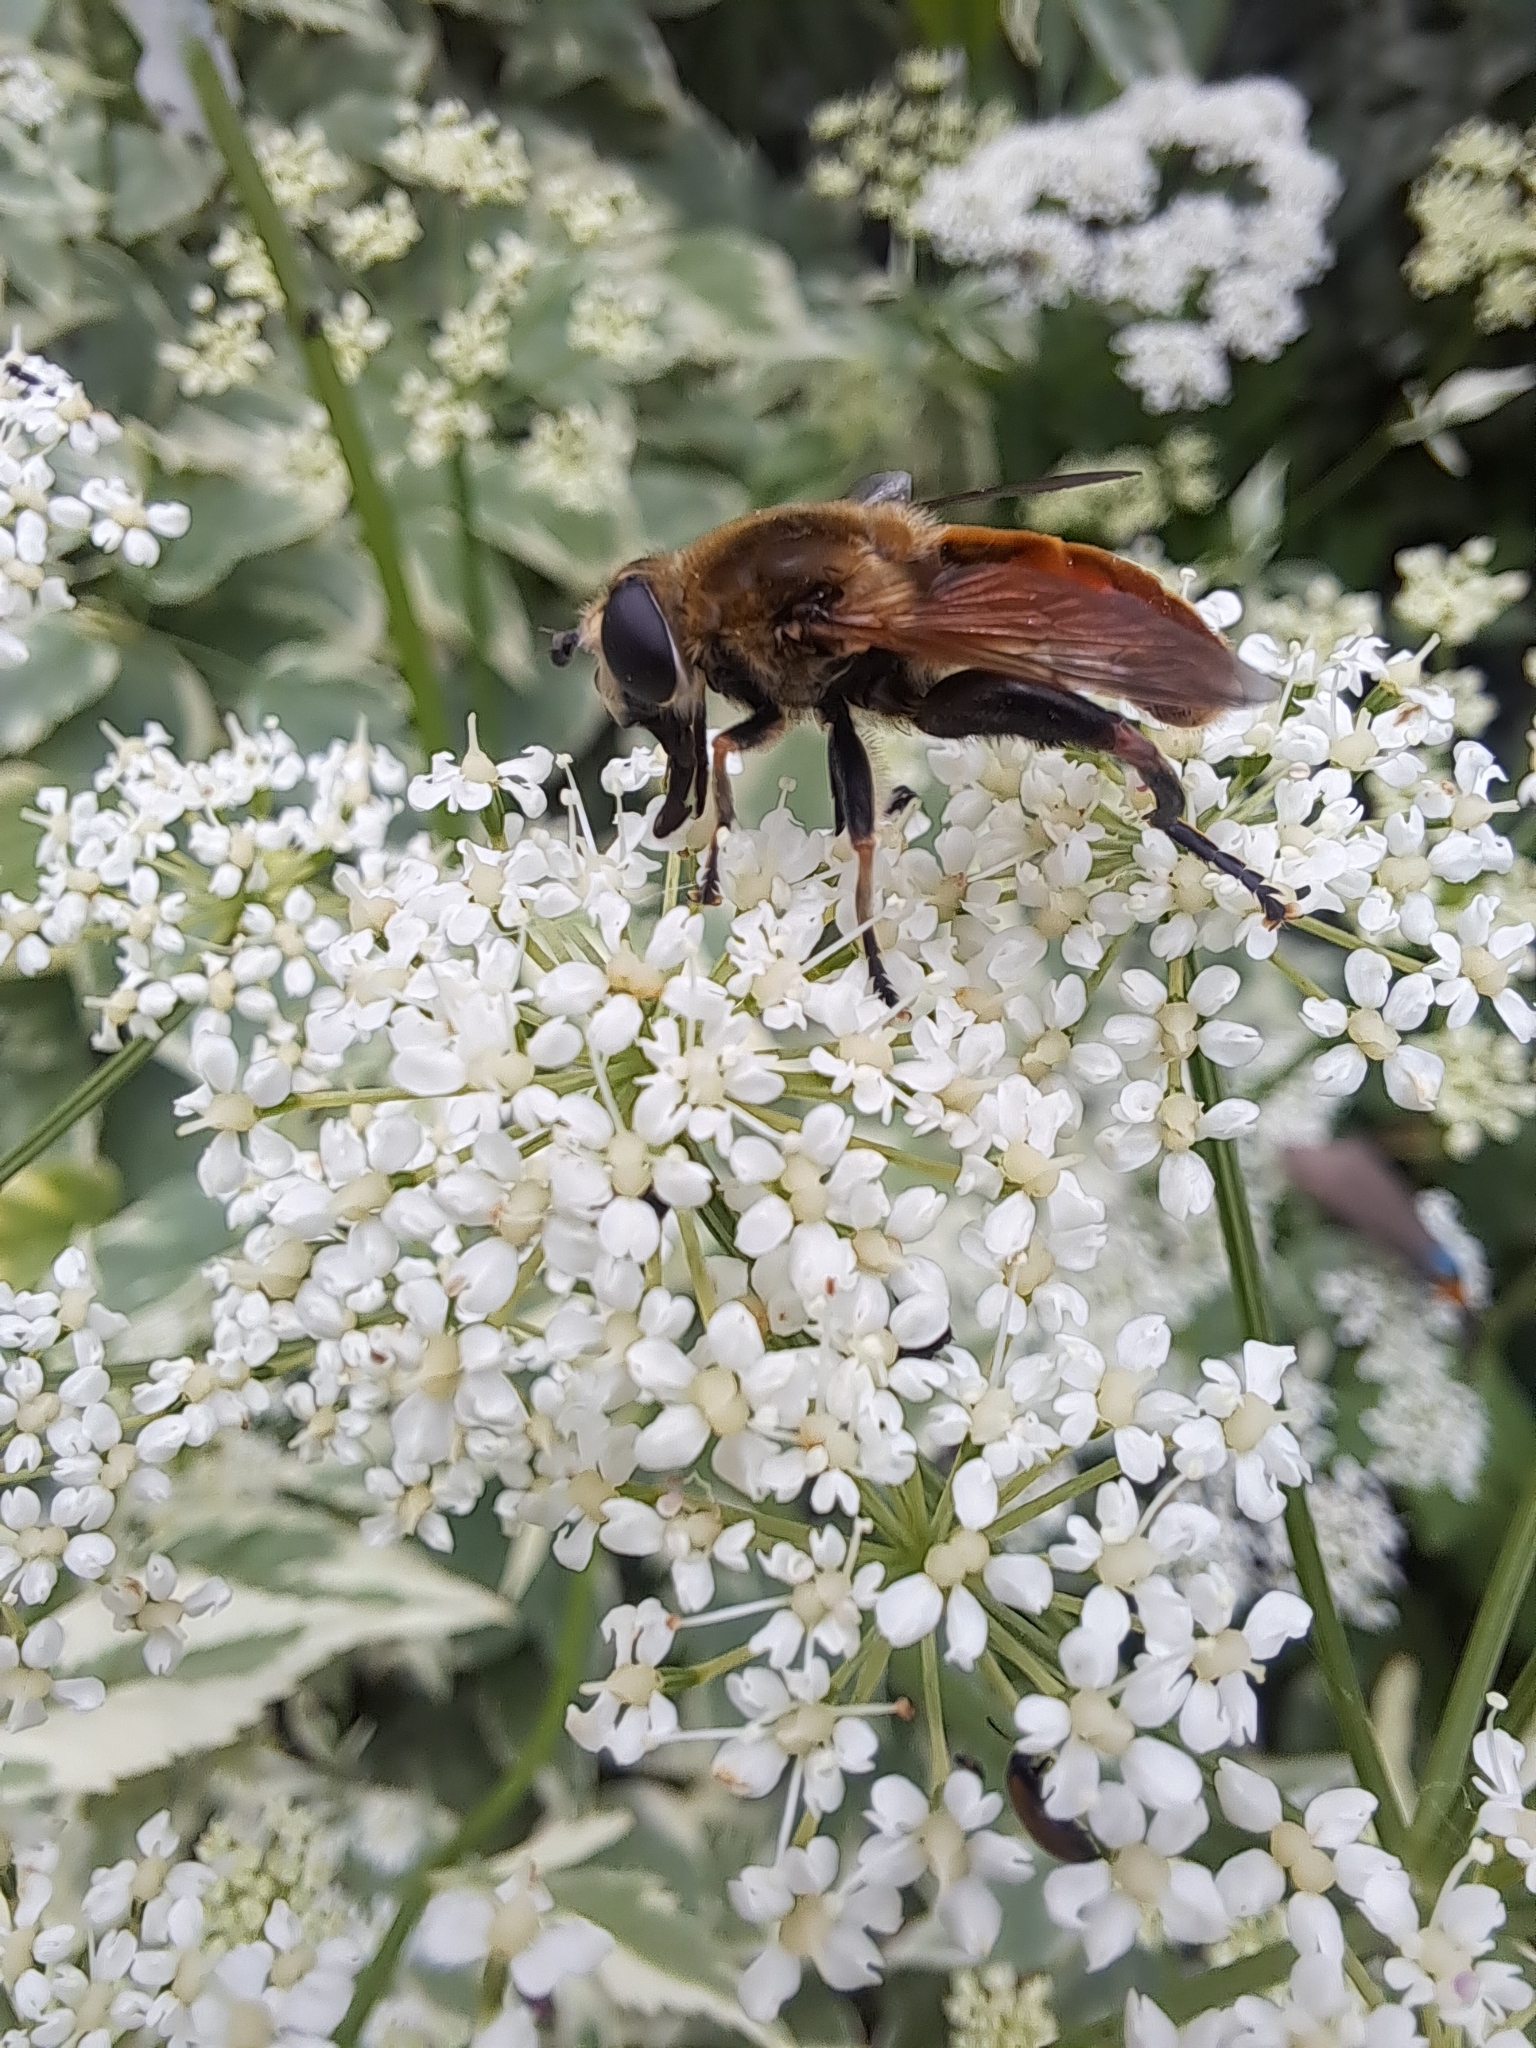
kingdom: Animalia
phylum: Arthropoda
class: Insecta
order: Diptera
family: Syrphidae
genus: Polydontomyia
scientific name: Polydontomyia curvipes
